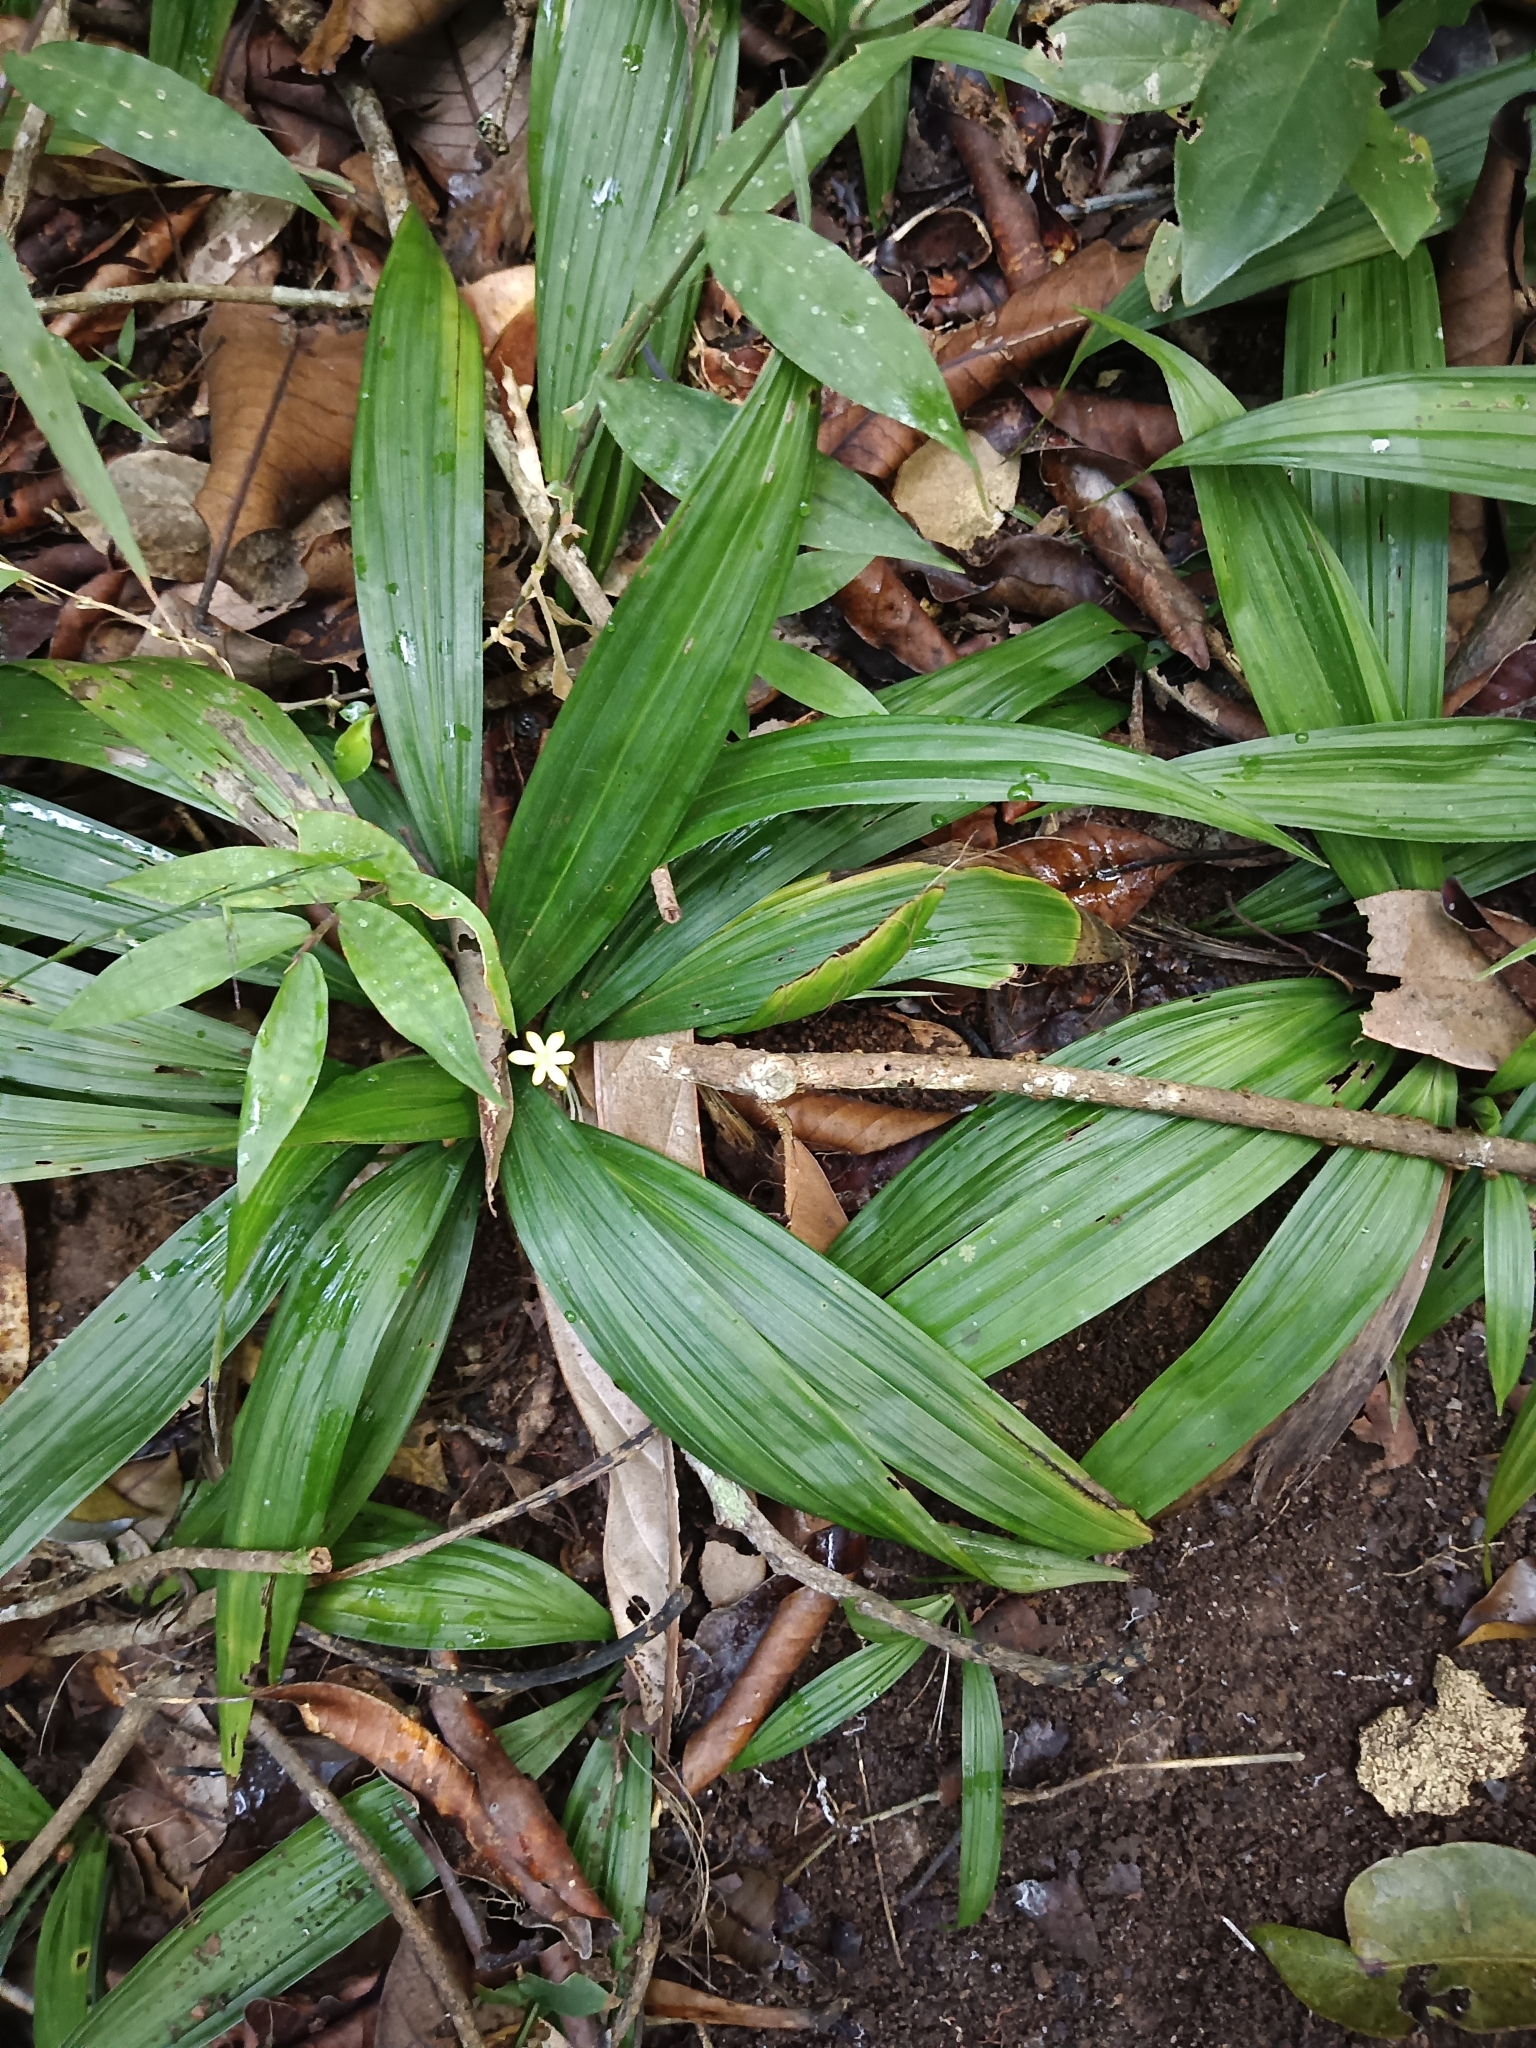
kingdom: Plantae
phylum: Tracheophyta
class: Liliopsida
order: Asparagales
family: Hypoxidaceae
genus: Curculigo
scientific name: Curculigo orchioides
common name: Golden eye-grass
